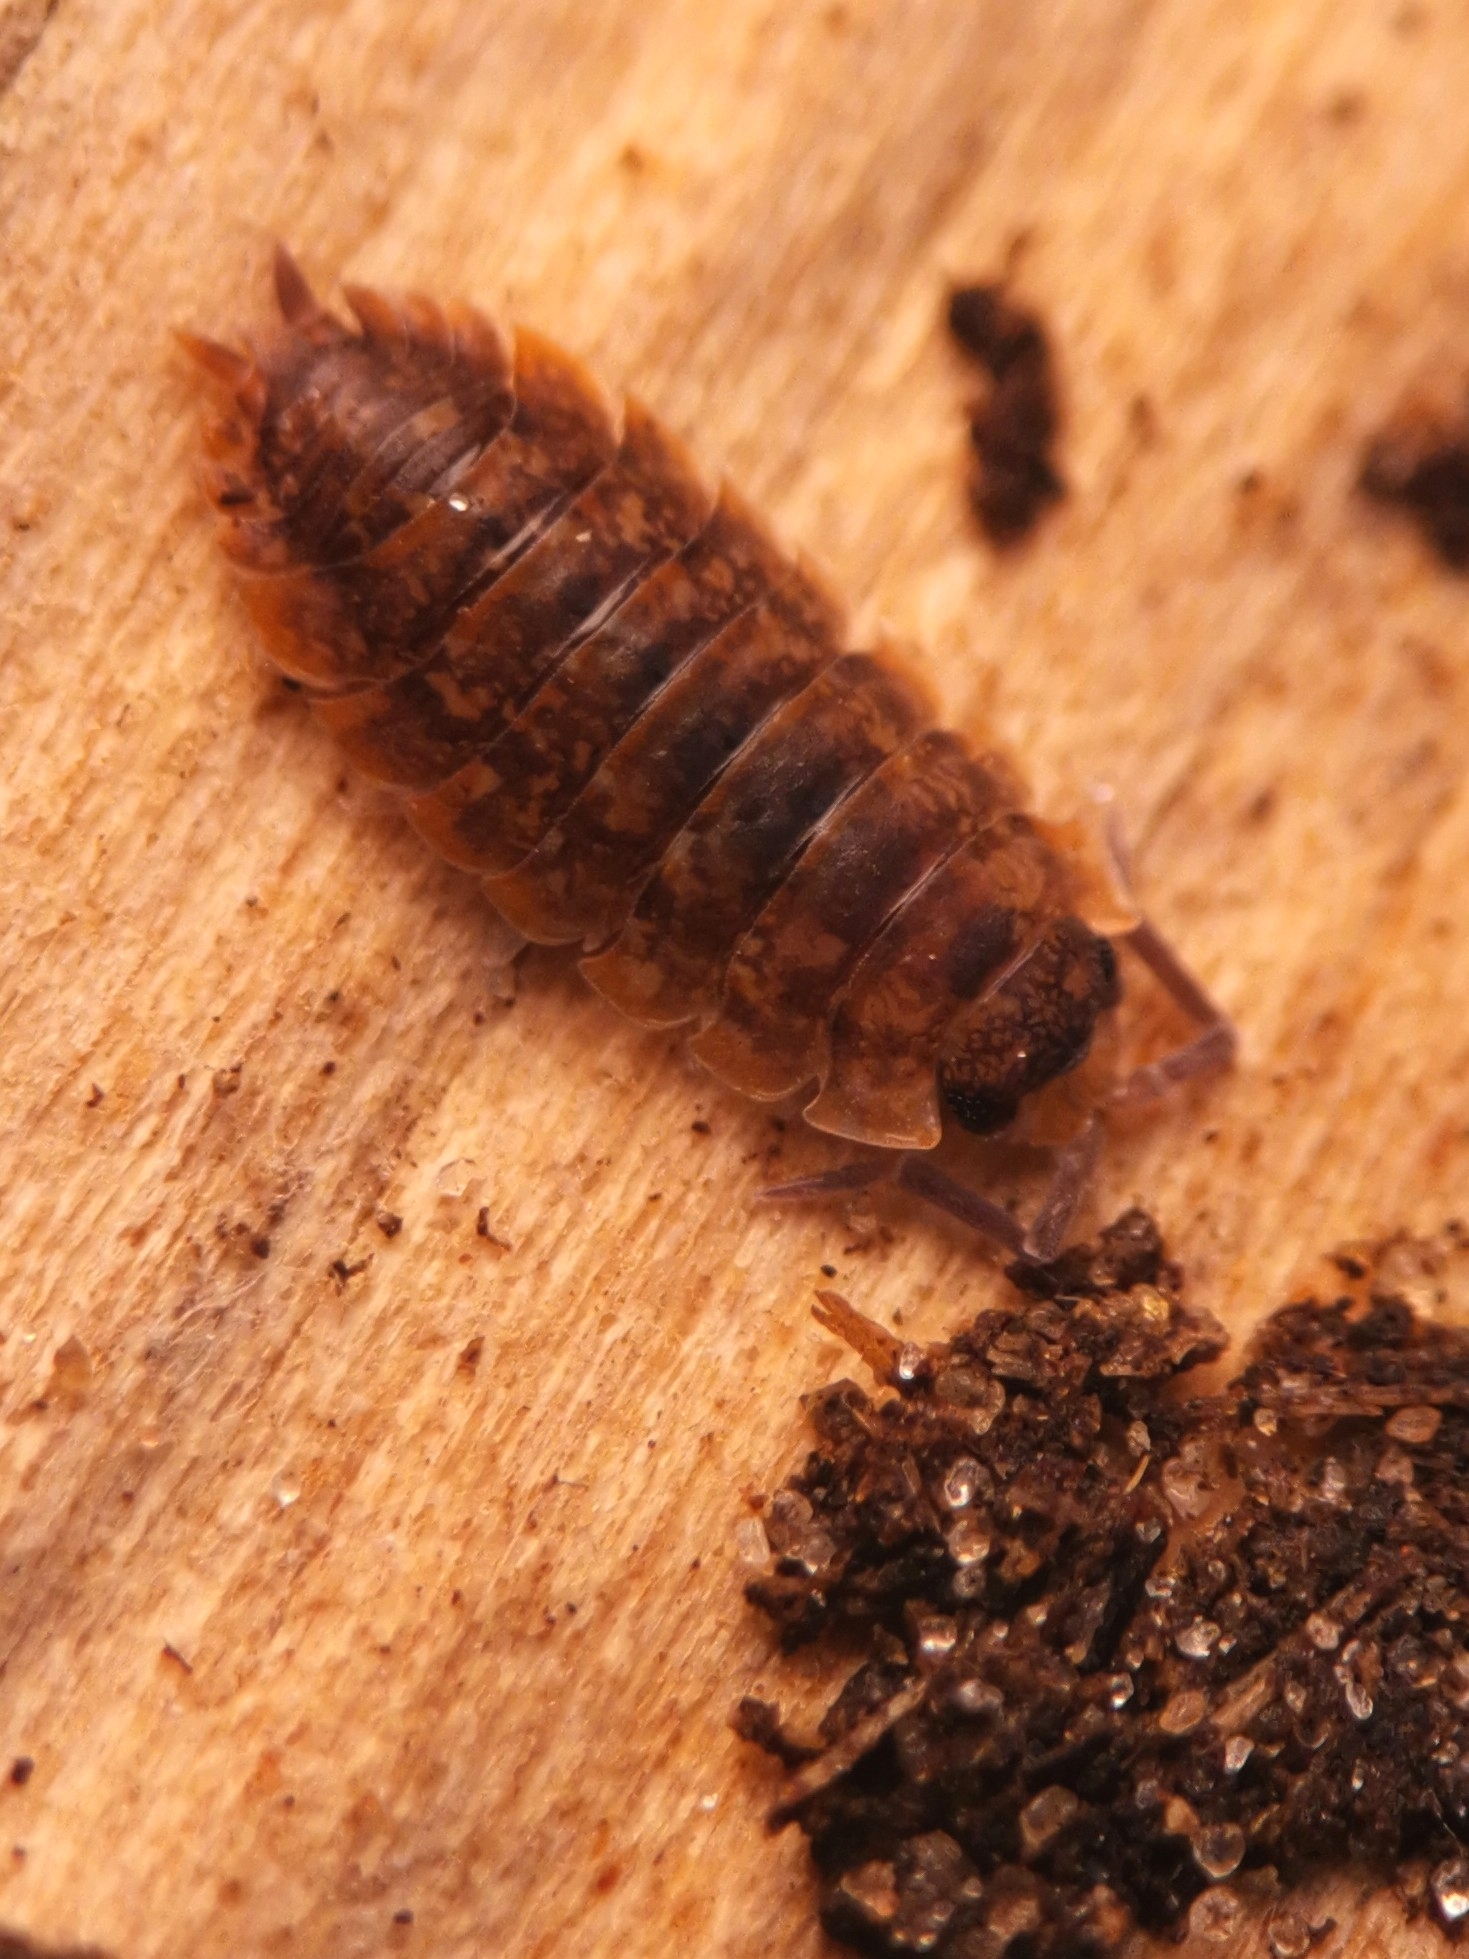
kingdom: Animalia
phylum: Arthropoda
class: Malacostraca
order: Isopoda
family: Porcellionidae
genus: Porcellio
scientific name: Porcellio scaber
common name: Common rough woodlouse
